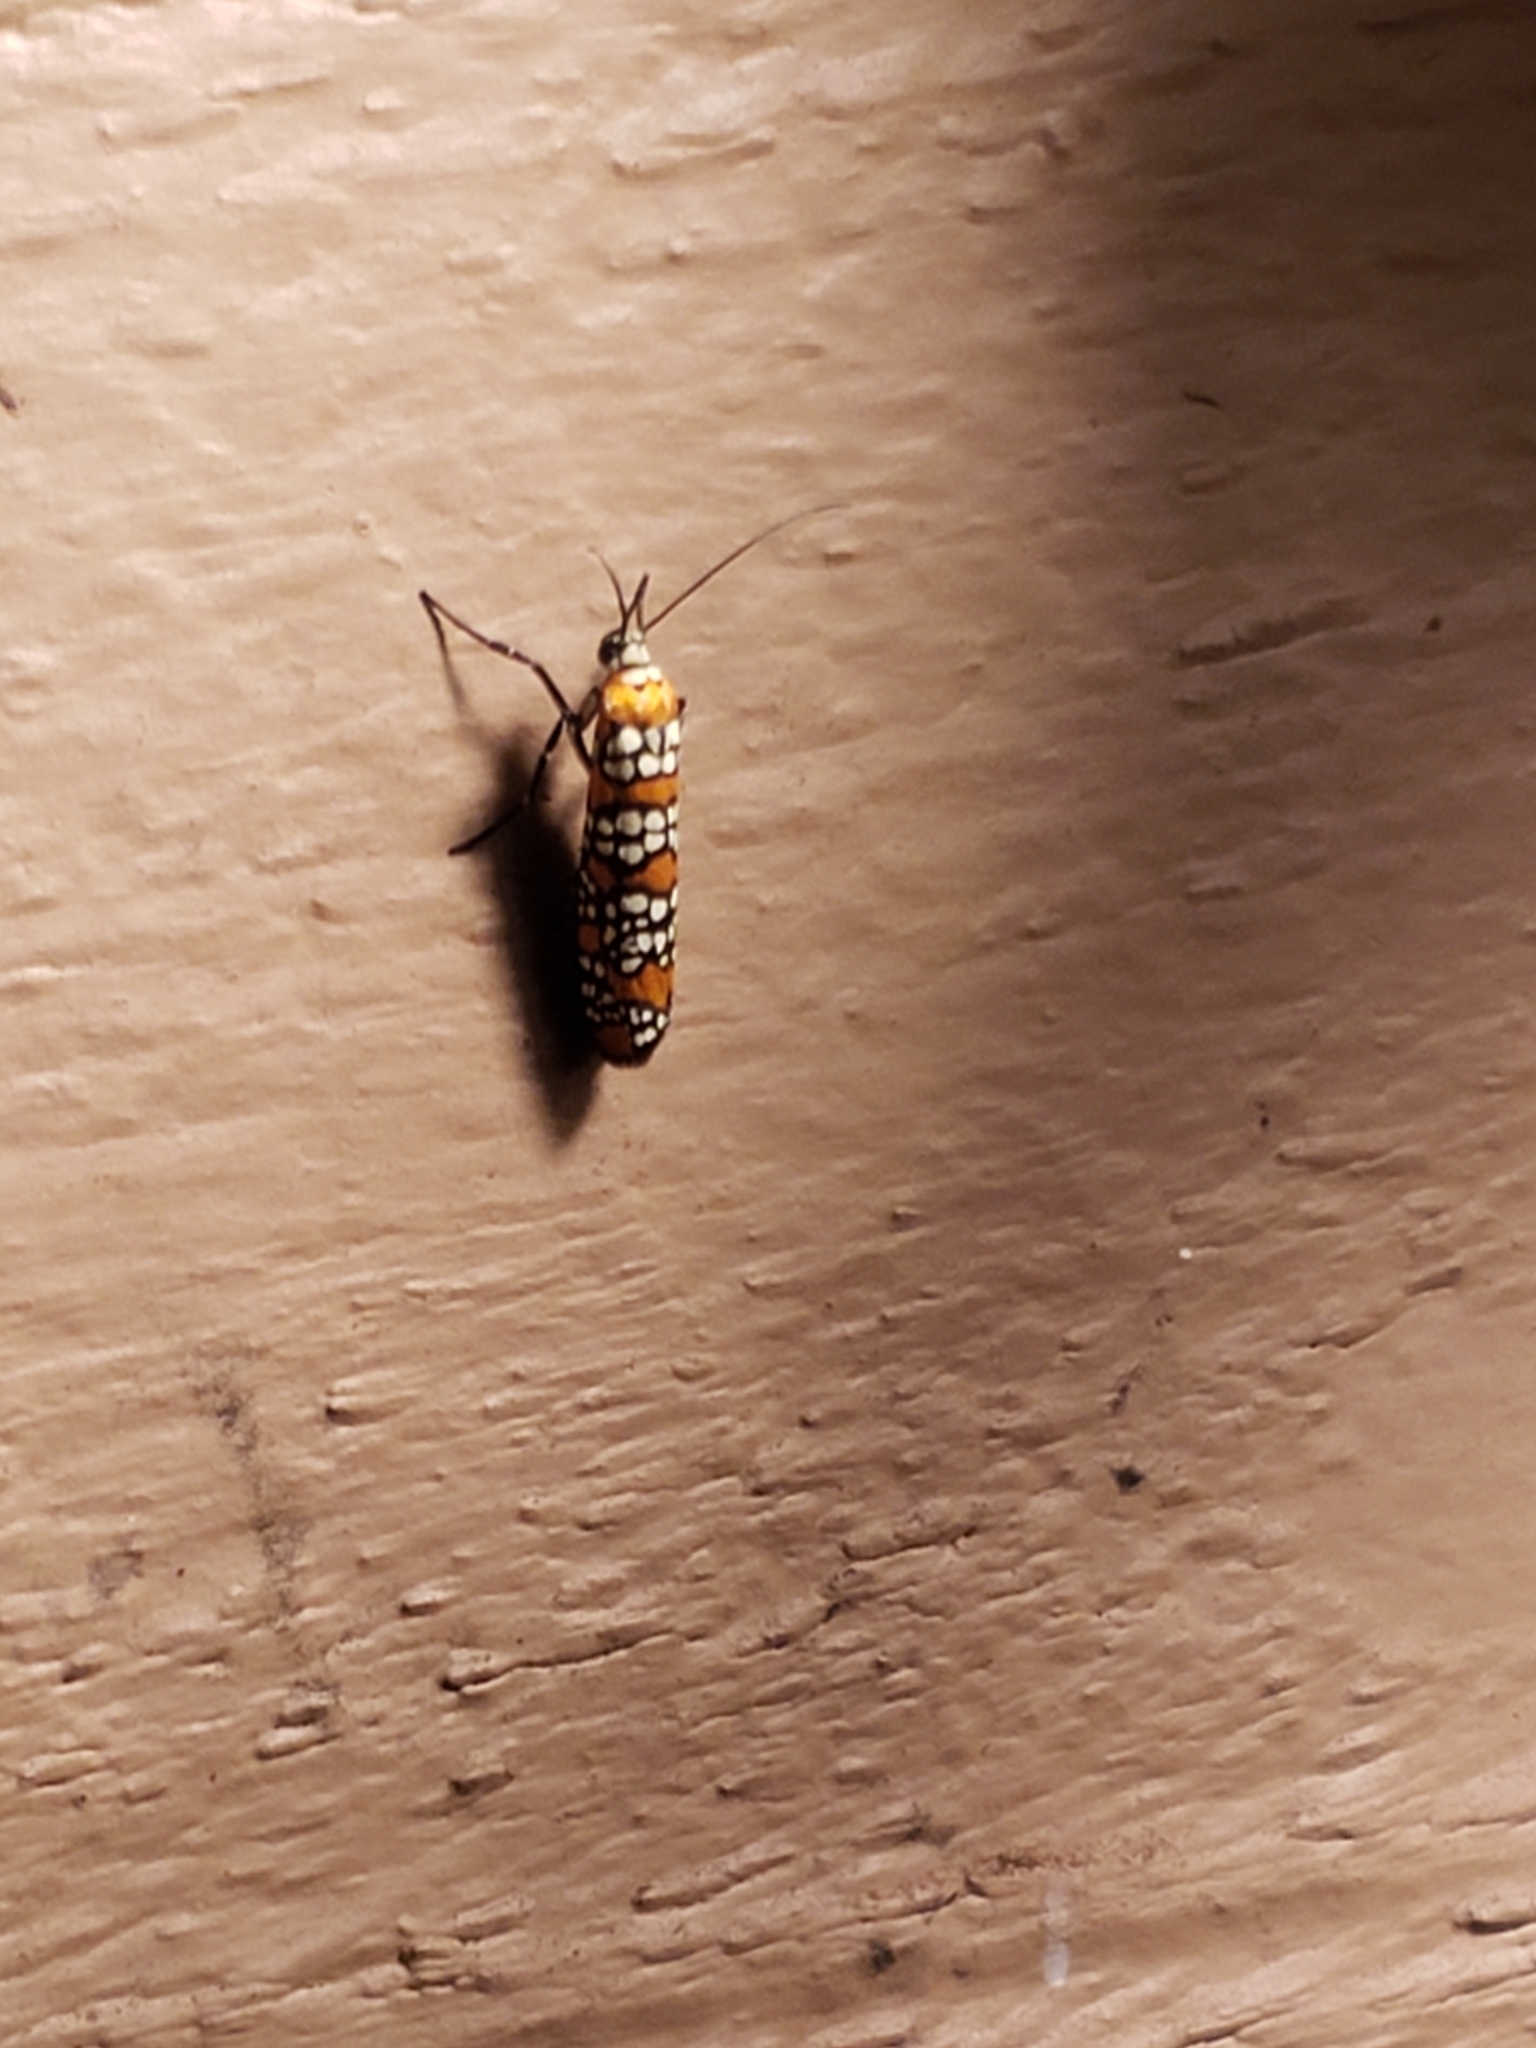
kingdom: Animalia
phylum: Arthropoda
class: Insecta
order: Lepidoptera
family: Attevidae
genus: Atteva
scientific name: Atteva punctella
